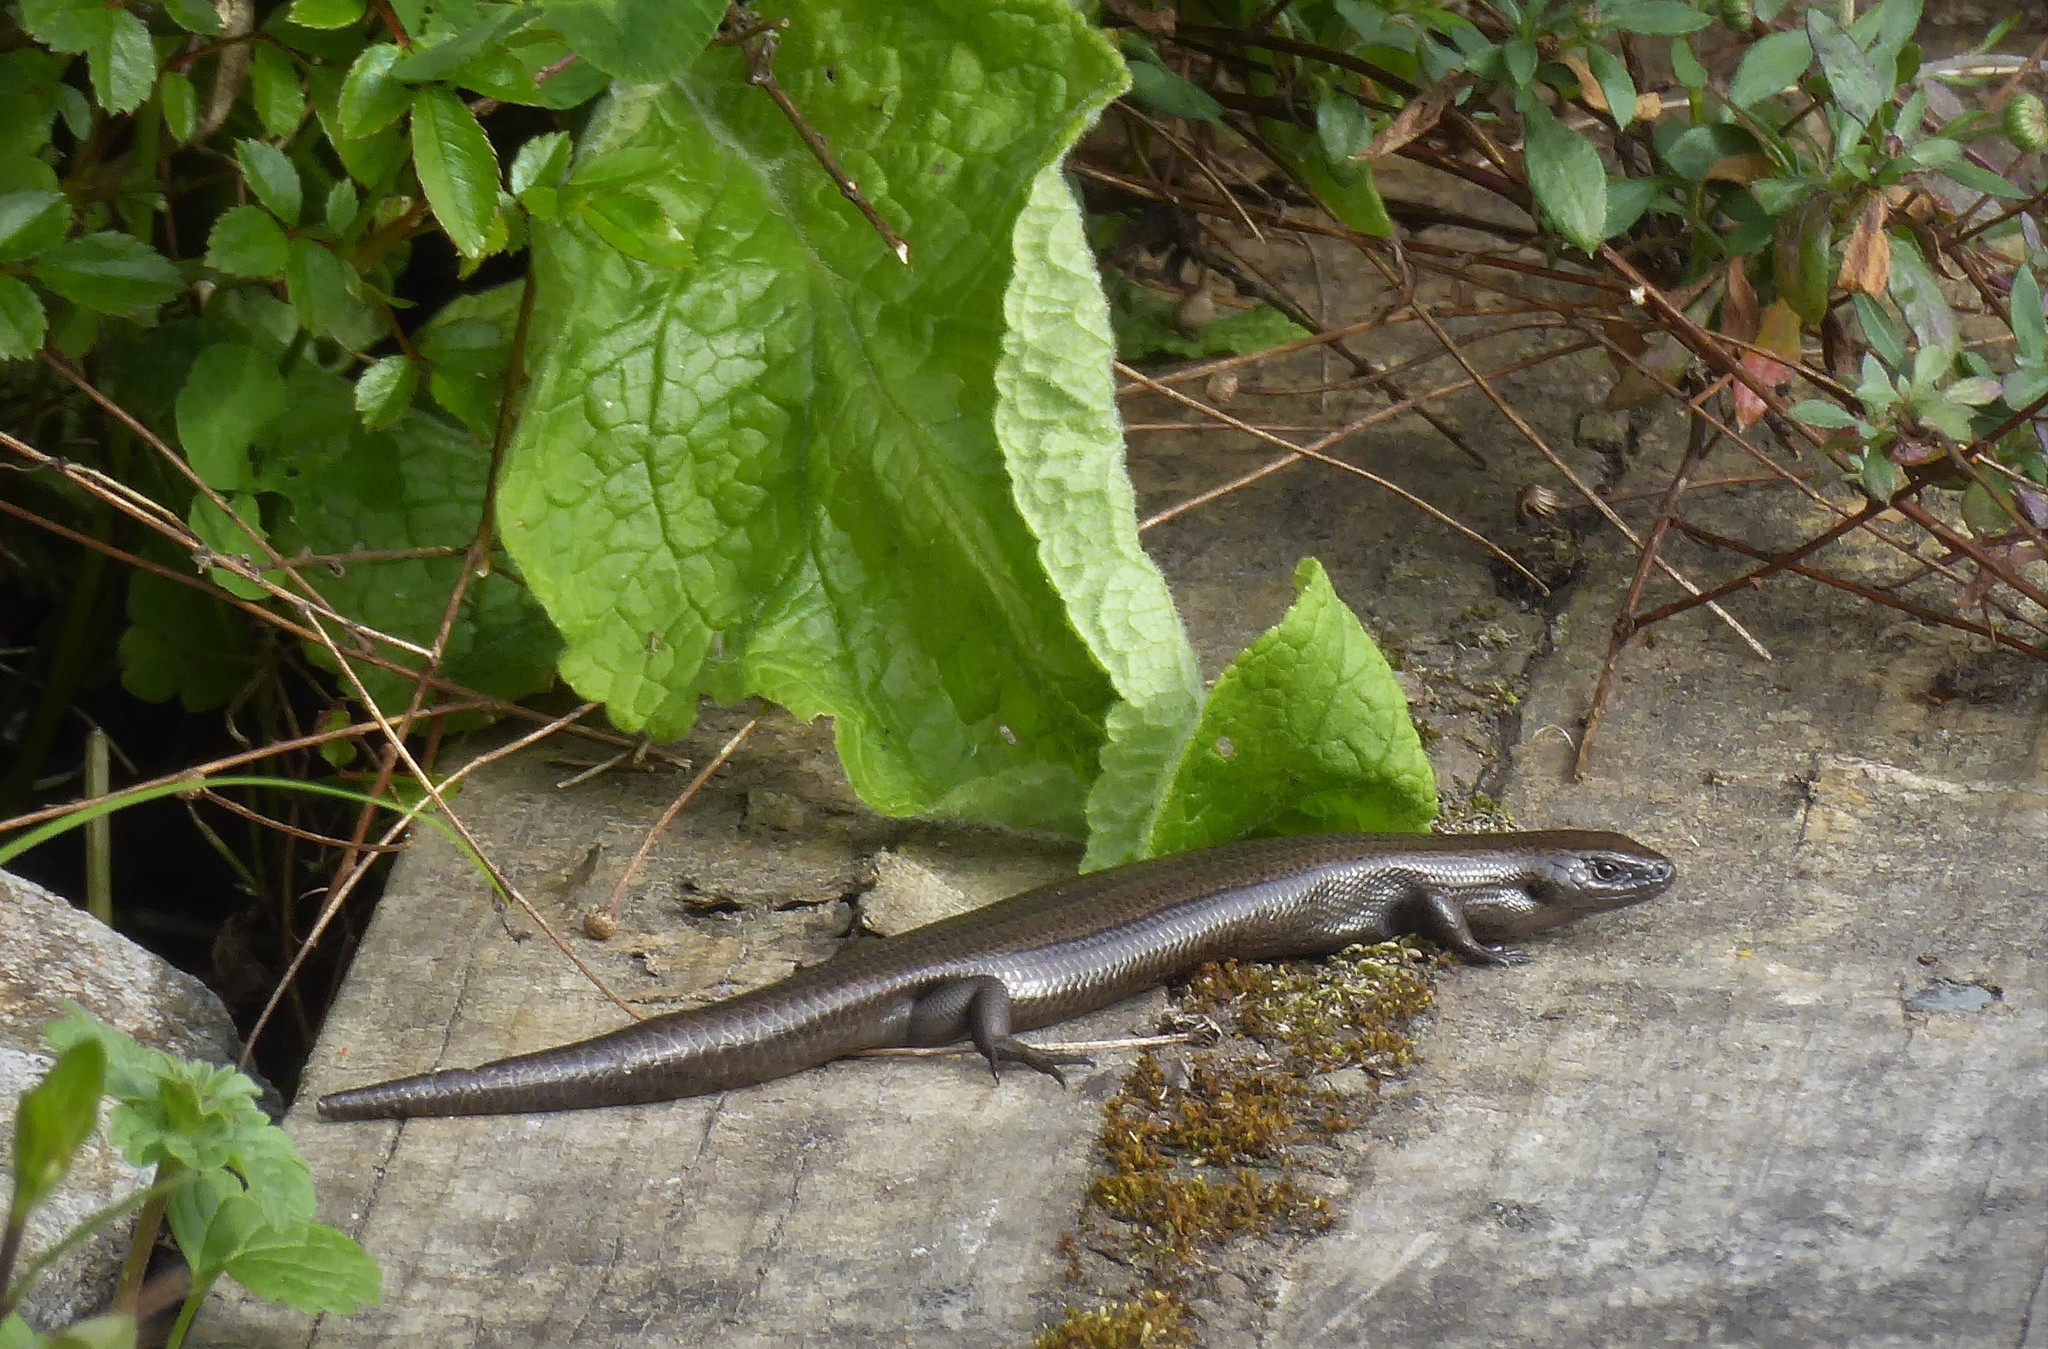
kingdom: Animalia
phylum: Chordata
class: Squamata
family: Scincidae
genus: Oligosoma
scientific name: Oligosoma polychroma
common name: Common new zealand skink
